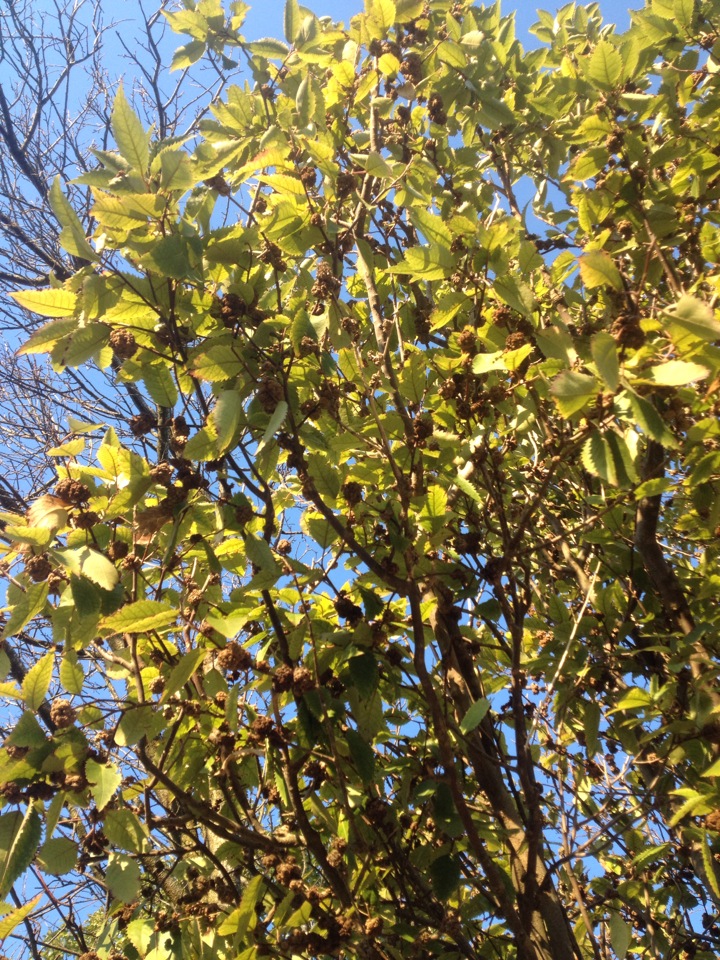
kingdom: Animalia
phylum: Arthropoda
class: Arachnida
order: Trombidiformes
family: Eriophyidae
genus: Eriophyes
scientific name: Eriophyes hoheriae
